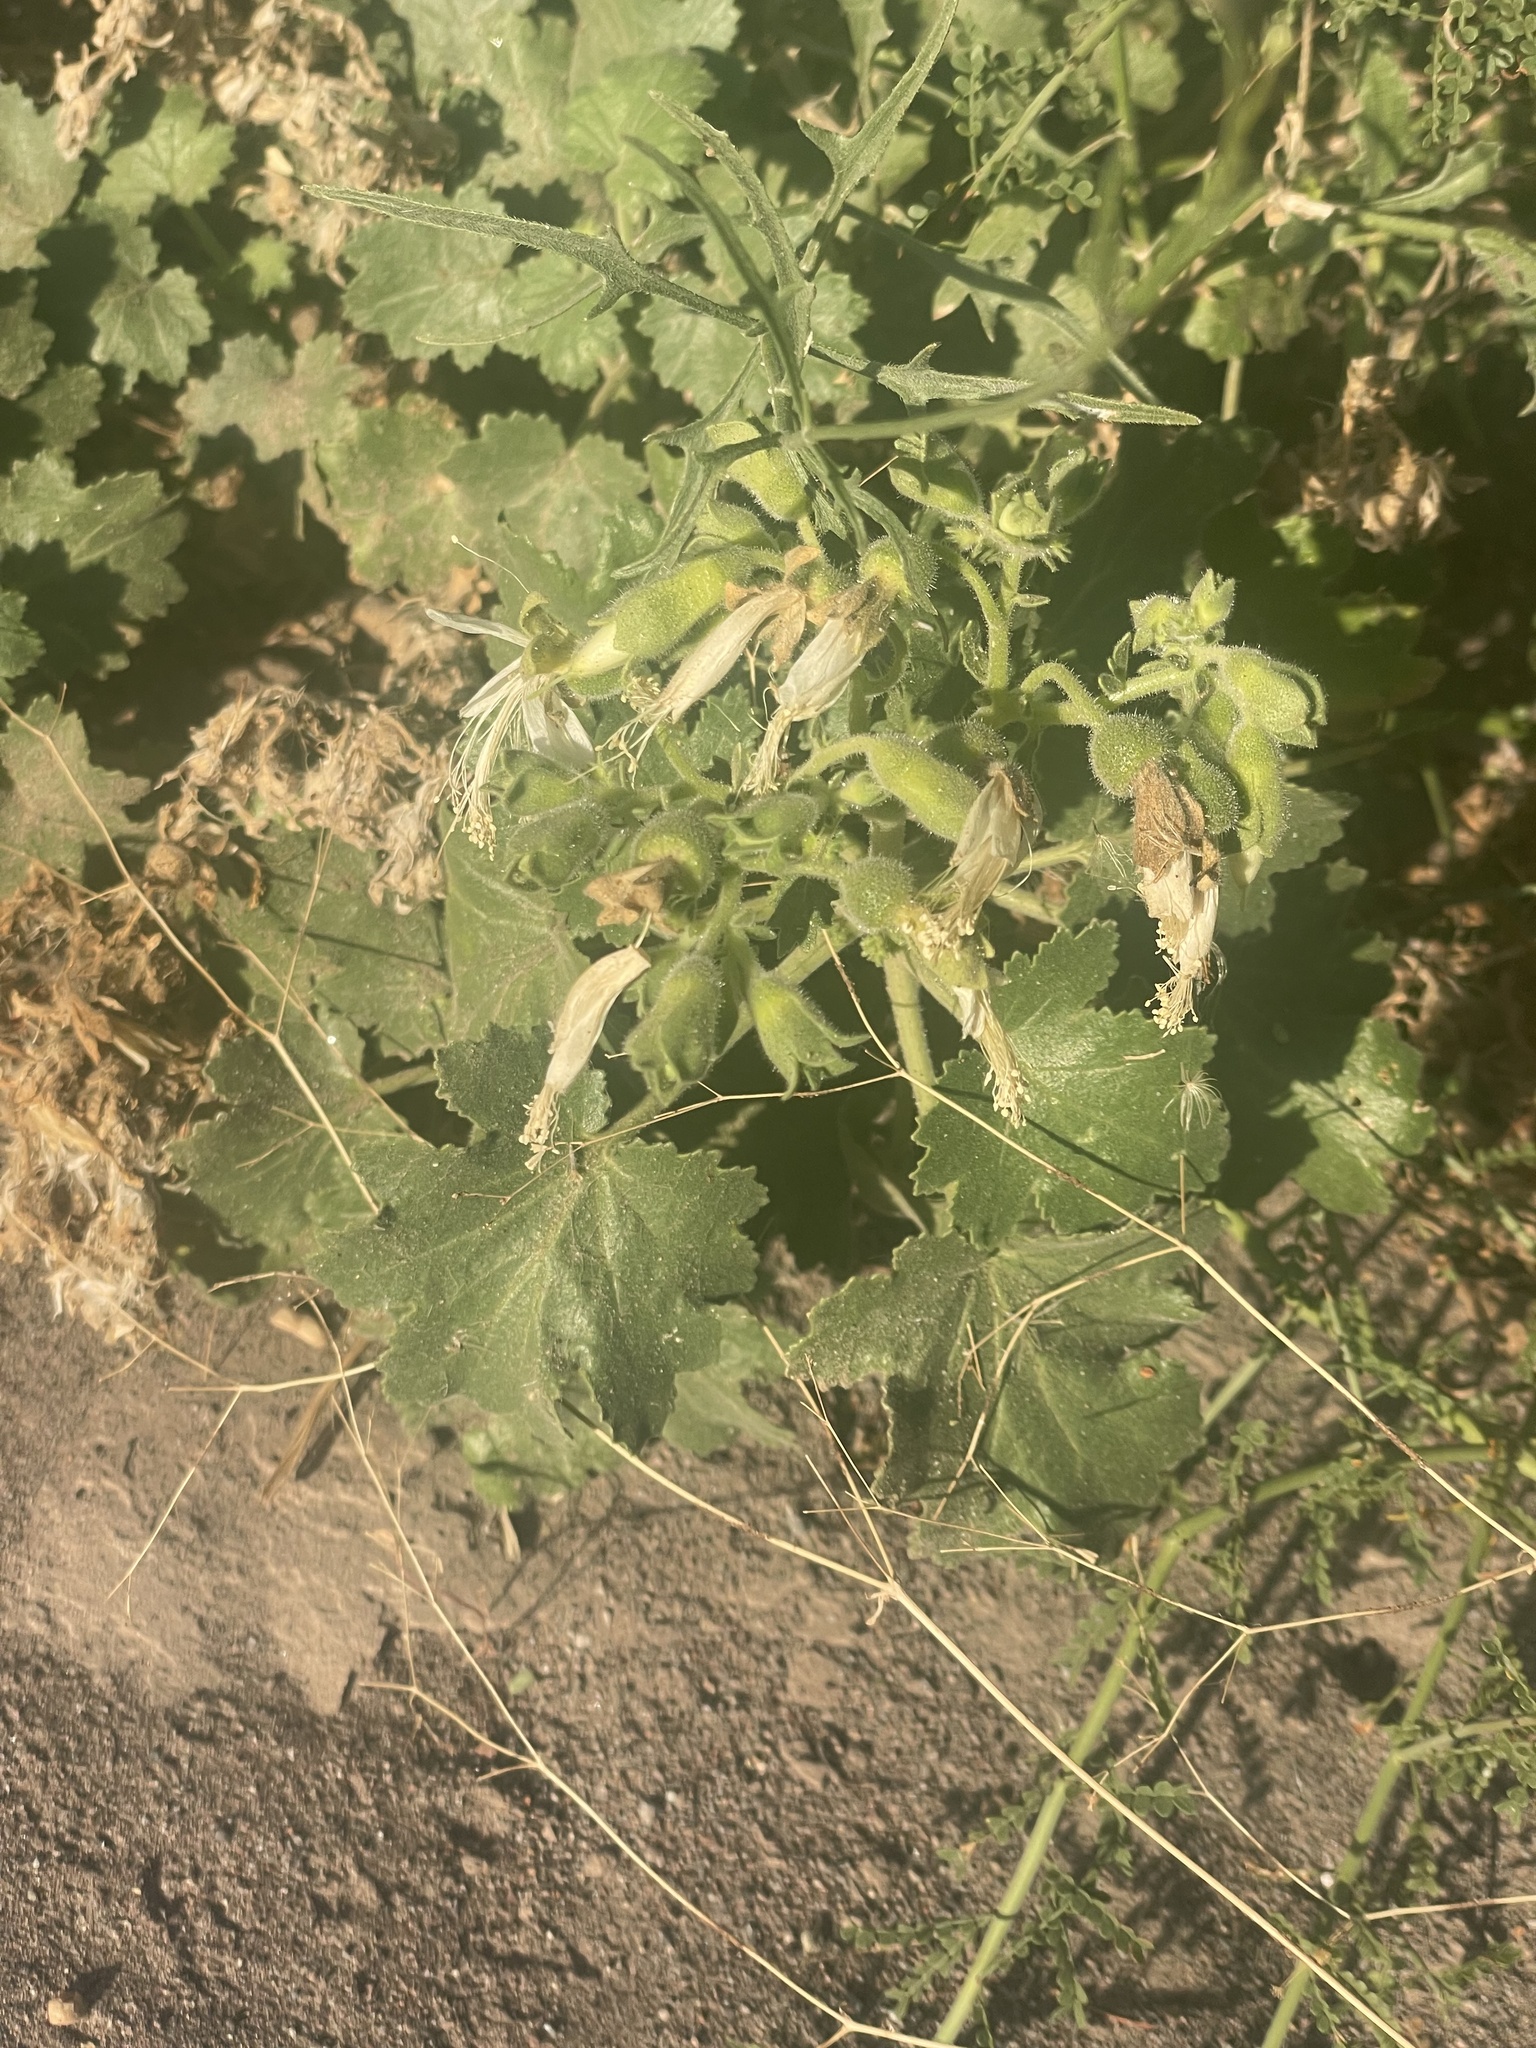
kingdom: Plantae
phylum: Tracheophyta
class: Magnoliopsida
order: Cornales
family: Loasaceae
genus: Eucnide
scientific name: Eucnide cordata
